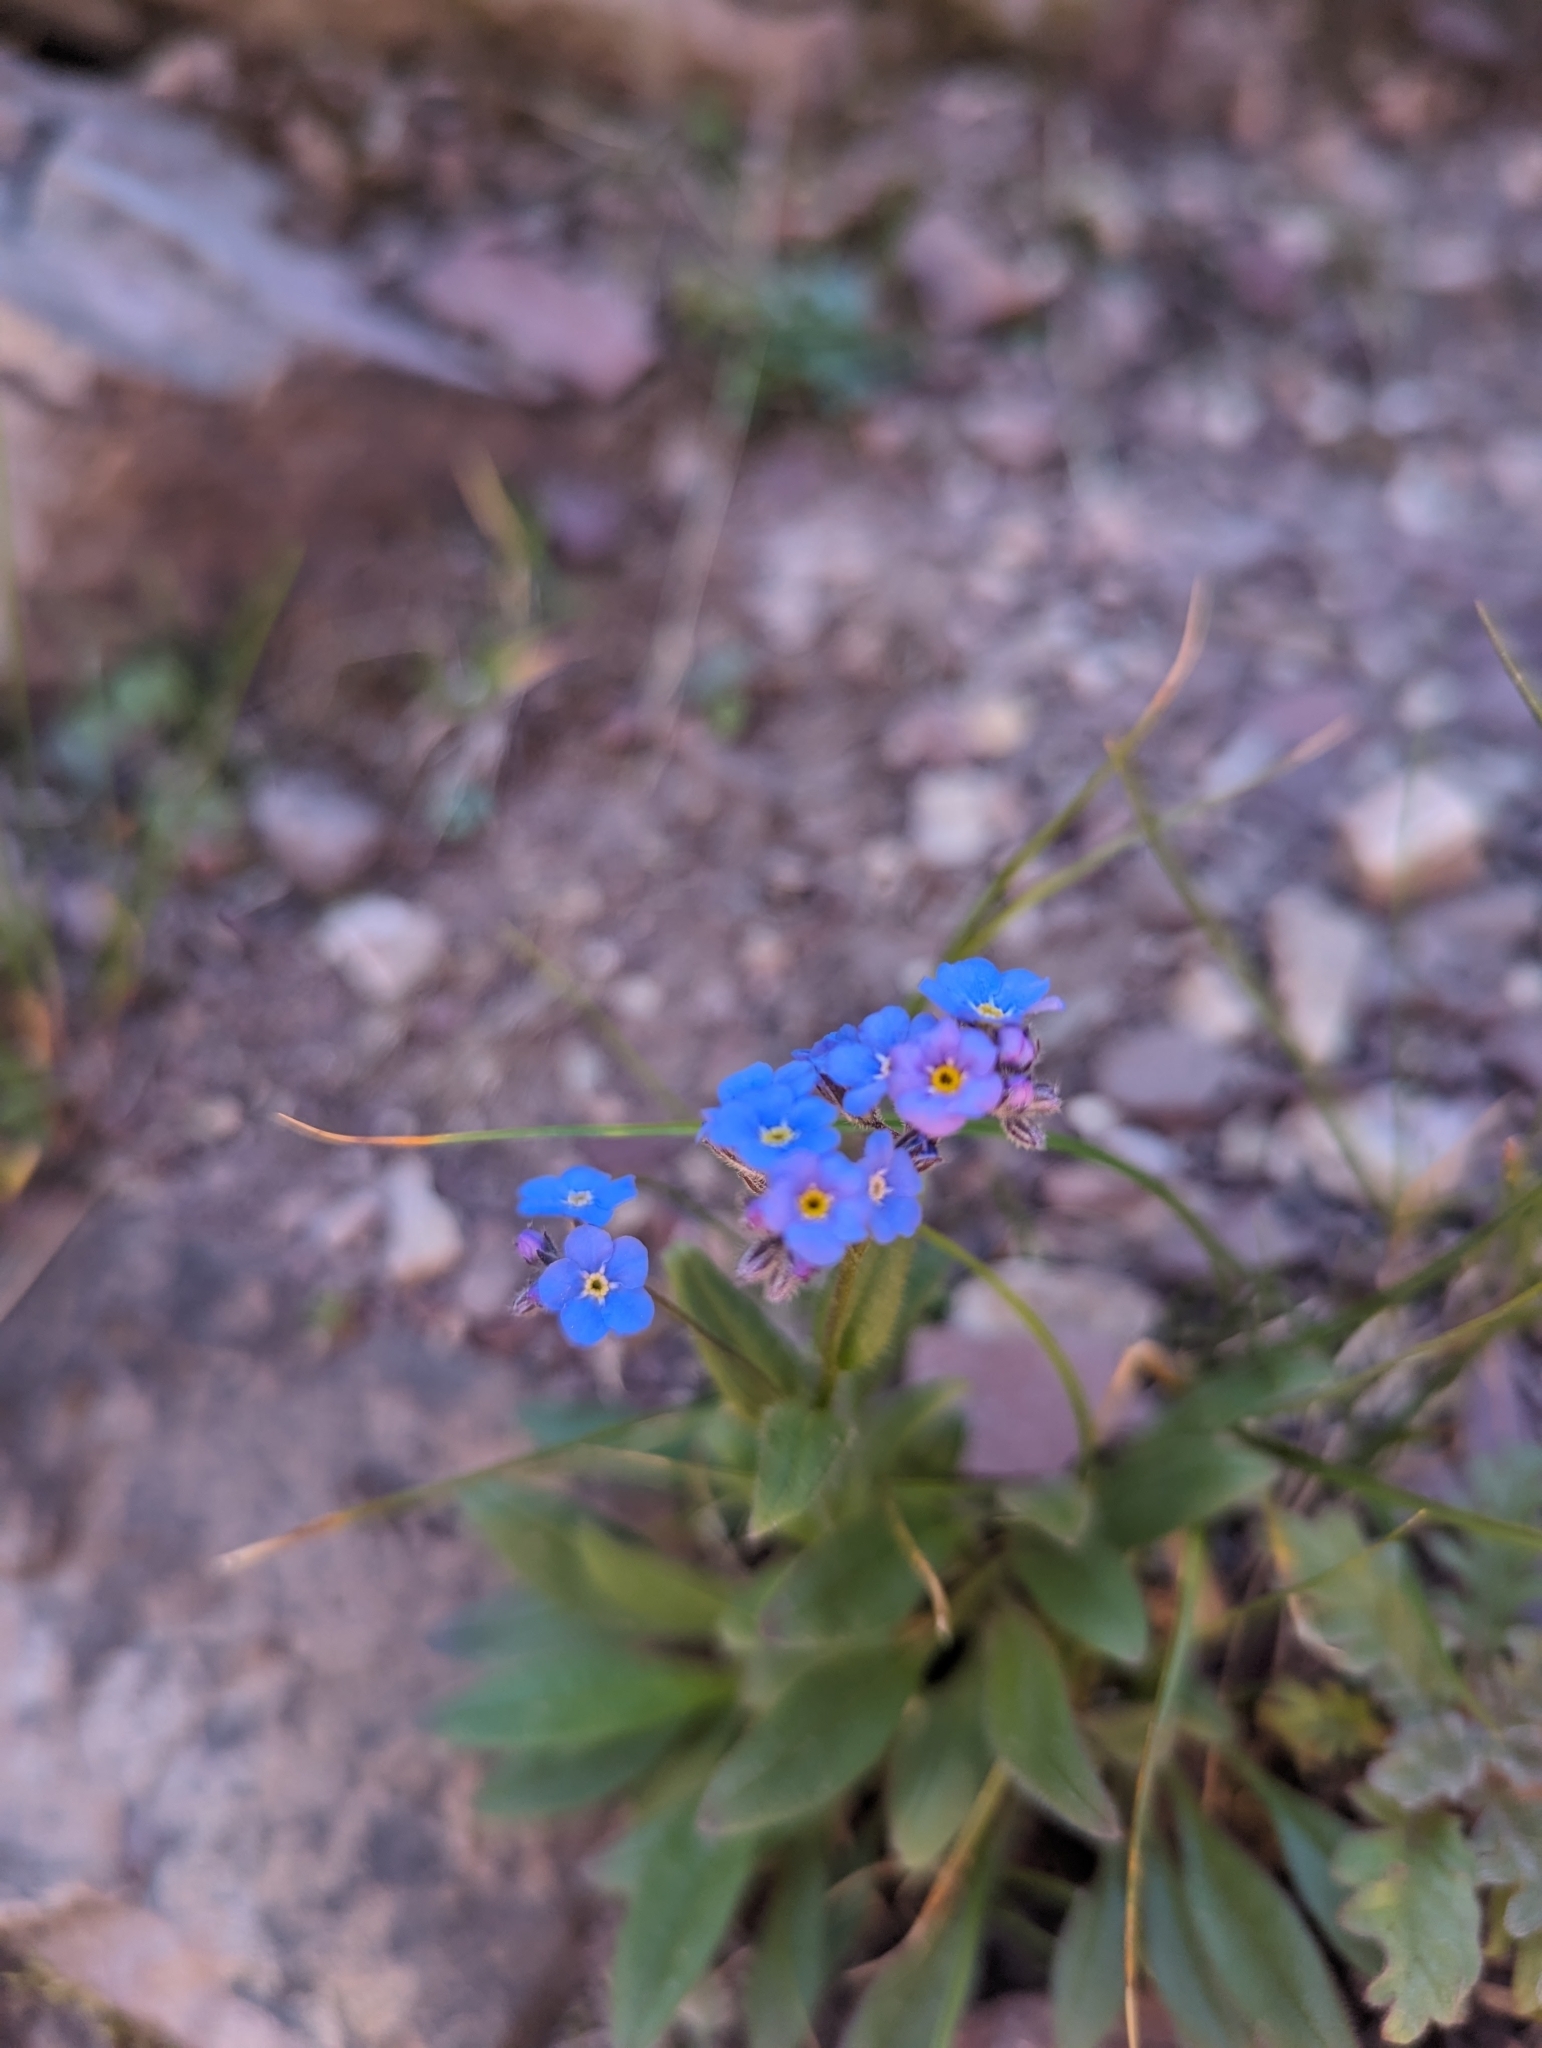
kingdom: Plantae
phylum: Tracheophyta
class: Magnoliopsida
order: Boraginales
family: Boraginaceae
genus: Myosotis
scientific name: Myosotis asiatica
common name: Asian forget-me-not
